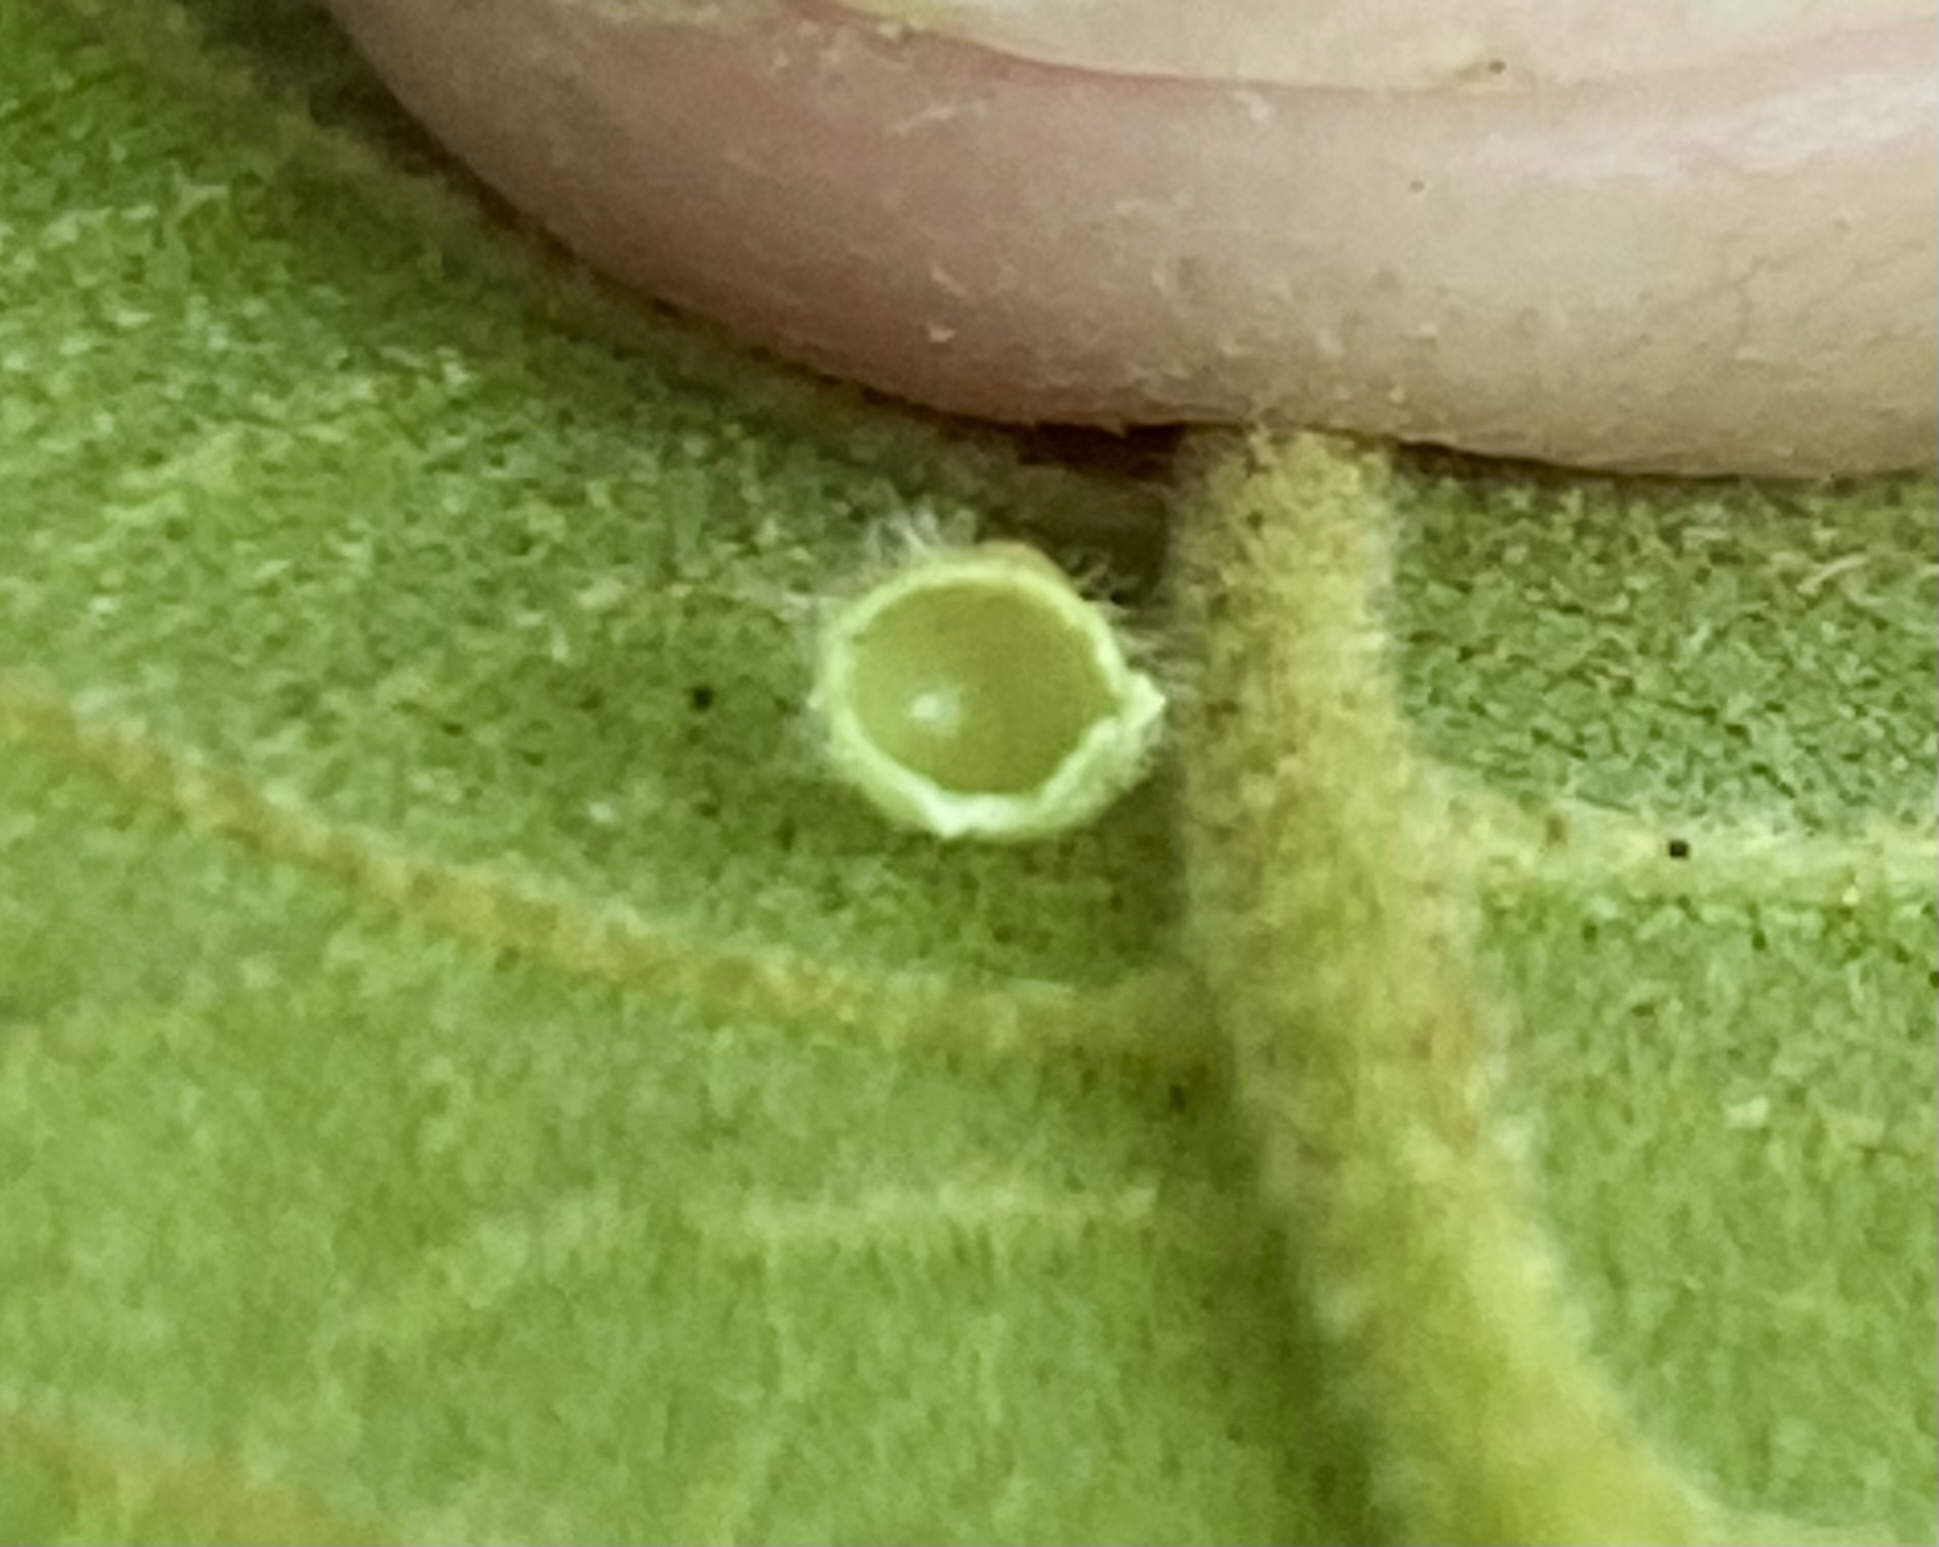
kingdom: Animalia
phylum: Arthropoda
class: Insecta
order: Diptera
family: Cecidomyiidae
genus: Caryomyia
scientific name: Caryomyia spiniglobus
